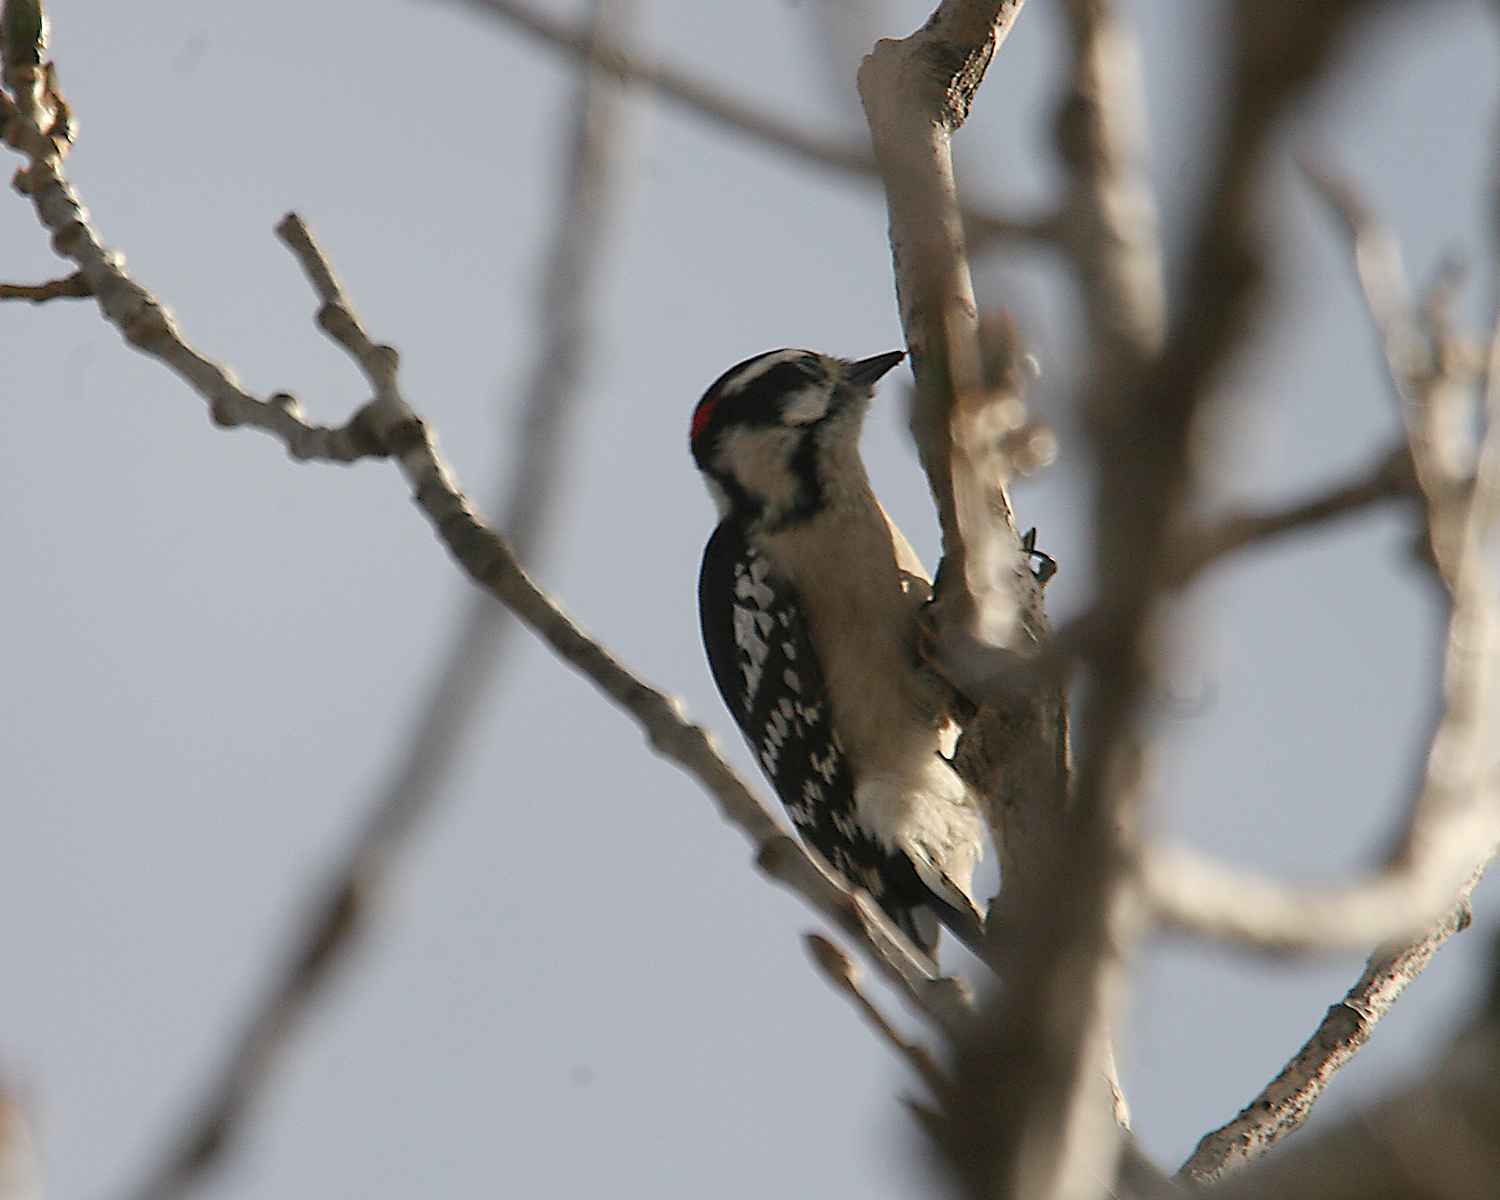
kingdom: Animalia
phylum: Chordata
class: Aves
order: Piciformes
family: Picidae
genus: Dryobates
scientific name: Dryobates pubescens
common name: Downy woodpecker
